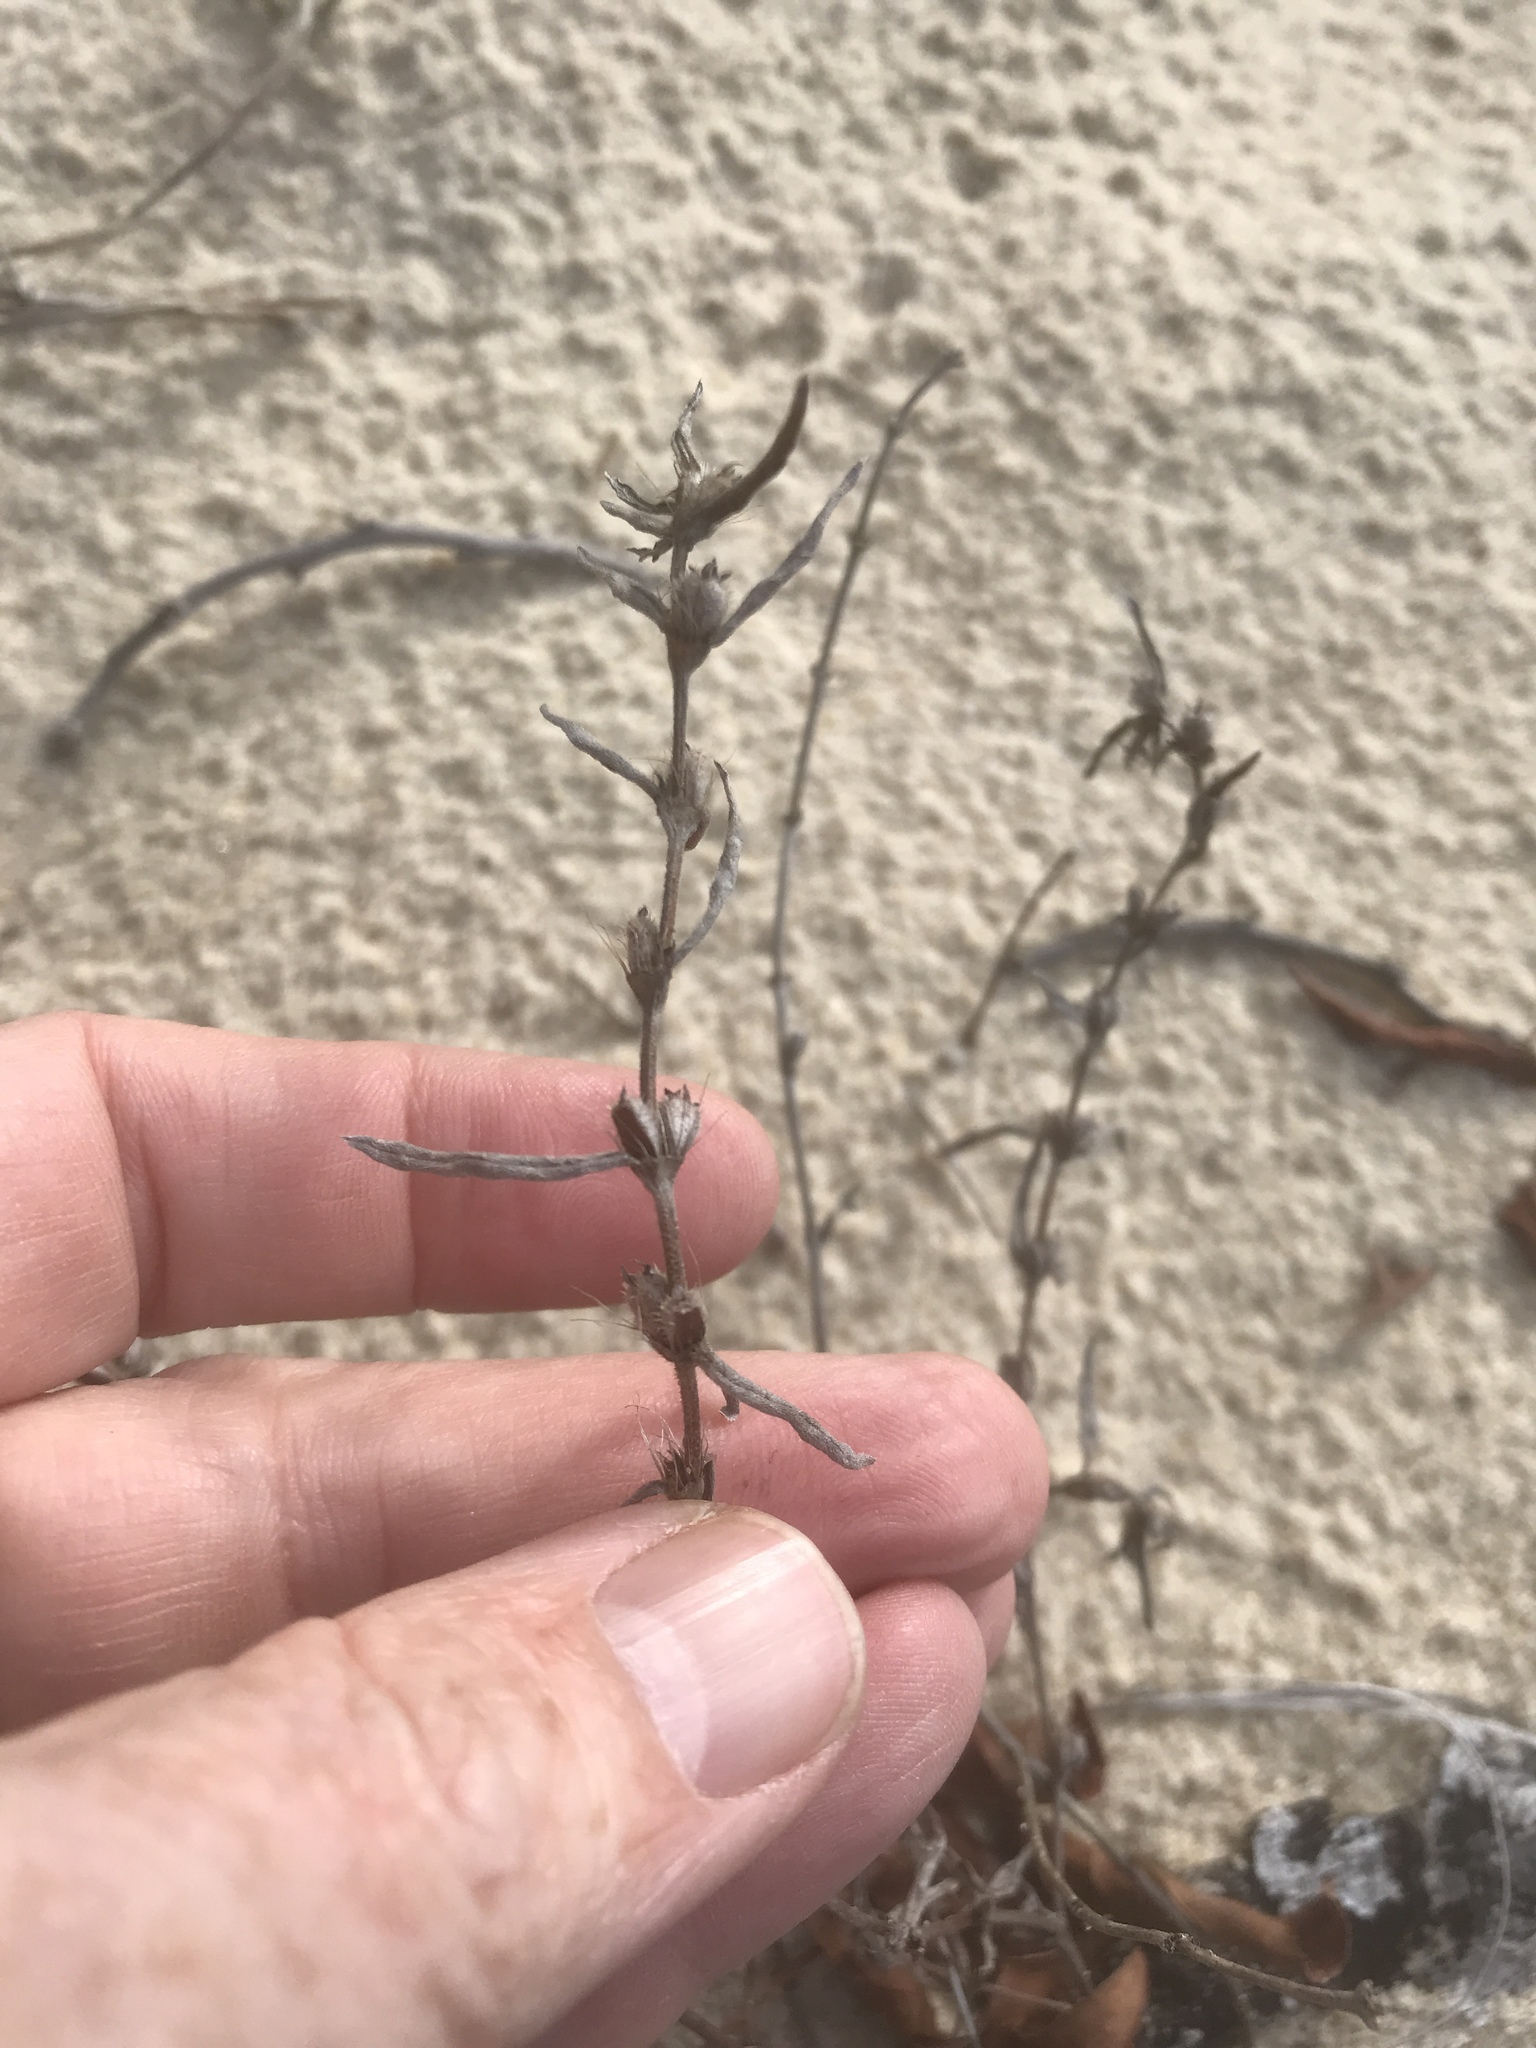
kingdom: Plantae
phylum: Tracheophyta
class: Magnoliopsida
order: Gentianales
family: Rubiaceae
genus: Diodia
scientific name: Diodia virginiana
